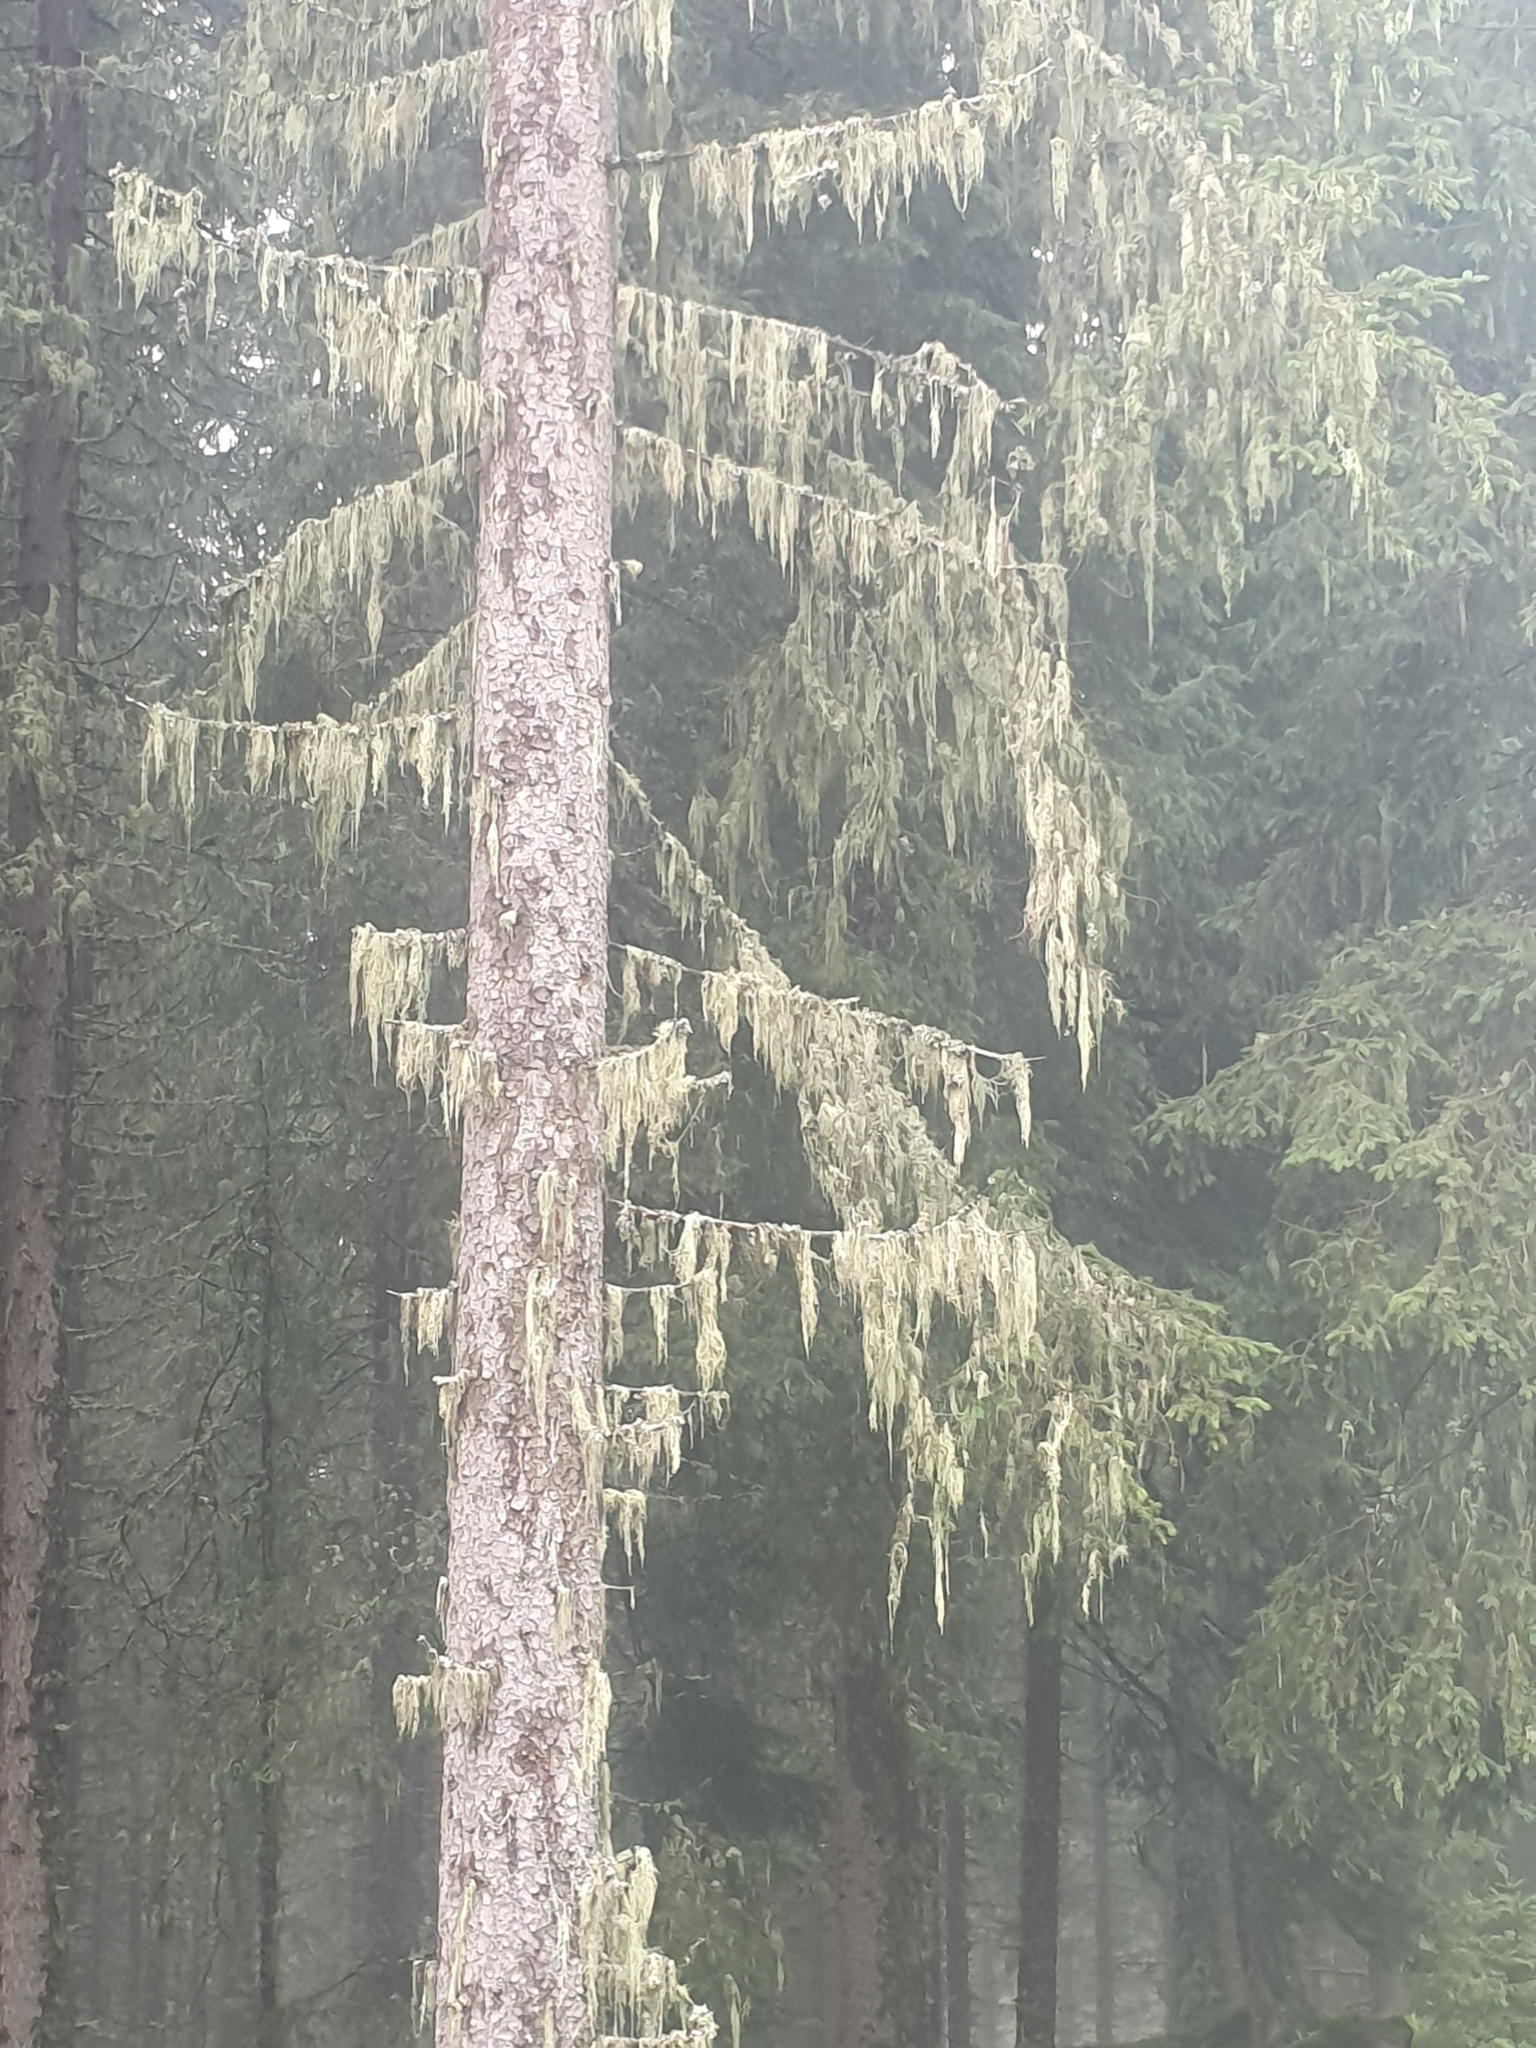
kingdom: Fungi
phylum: Ascomycota
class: Lecanoromycetes
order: Lecanorales
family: Parmeliaceae
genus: Evernia
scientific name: Evernia divaricata
